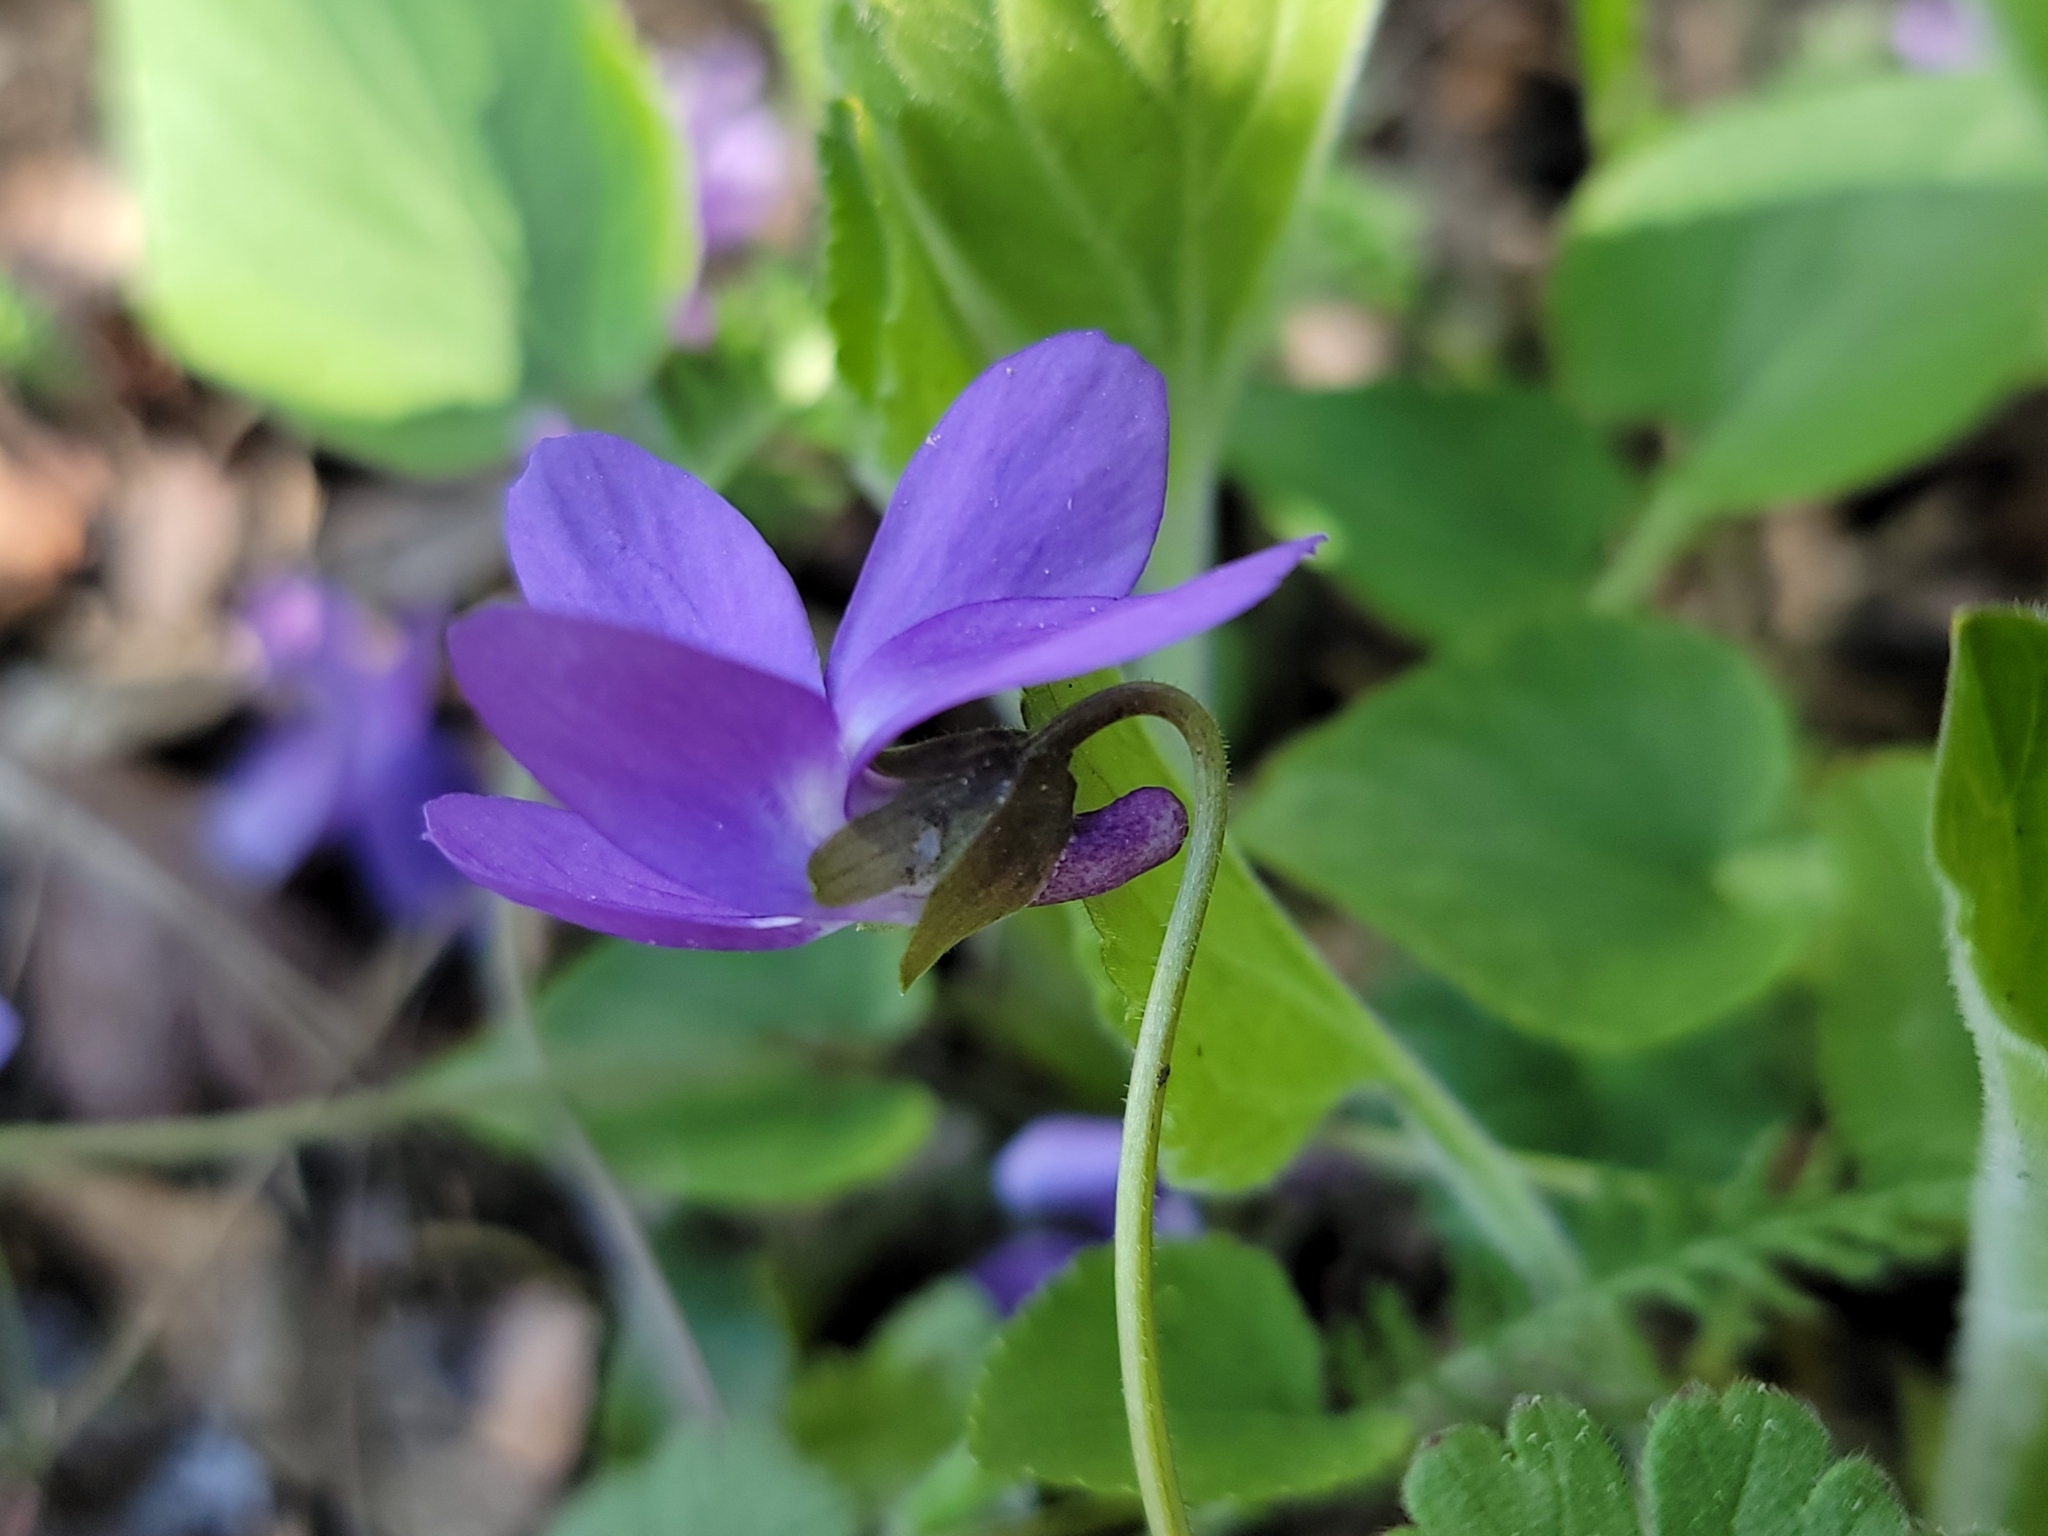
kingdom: Plantae
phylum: Tracheophyta
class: Magnoliopsida
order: Malpighiales
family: Violaceae
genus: Viola
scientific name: Viola hirta
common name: Hairy violet
